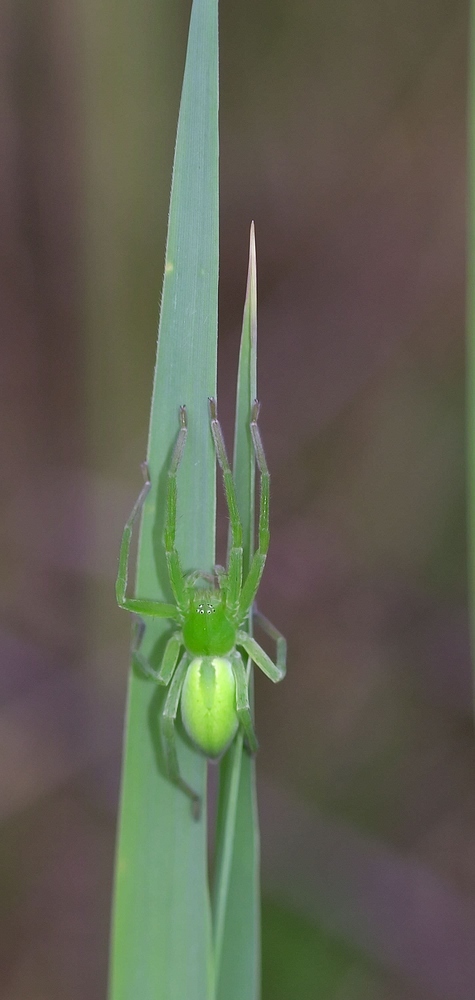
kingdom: Animalia
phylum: Arthropoda
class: Arachnida
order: Araneae
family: Sparassidae
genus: Micrommata
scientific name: Micrommata virescens
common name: Green spider
